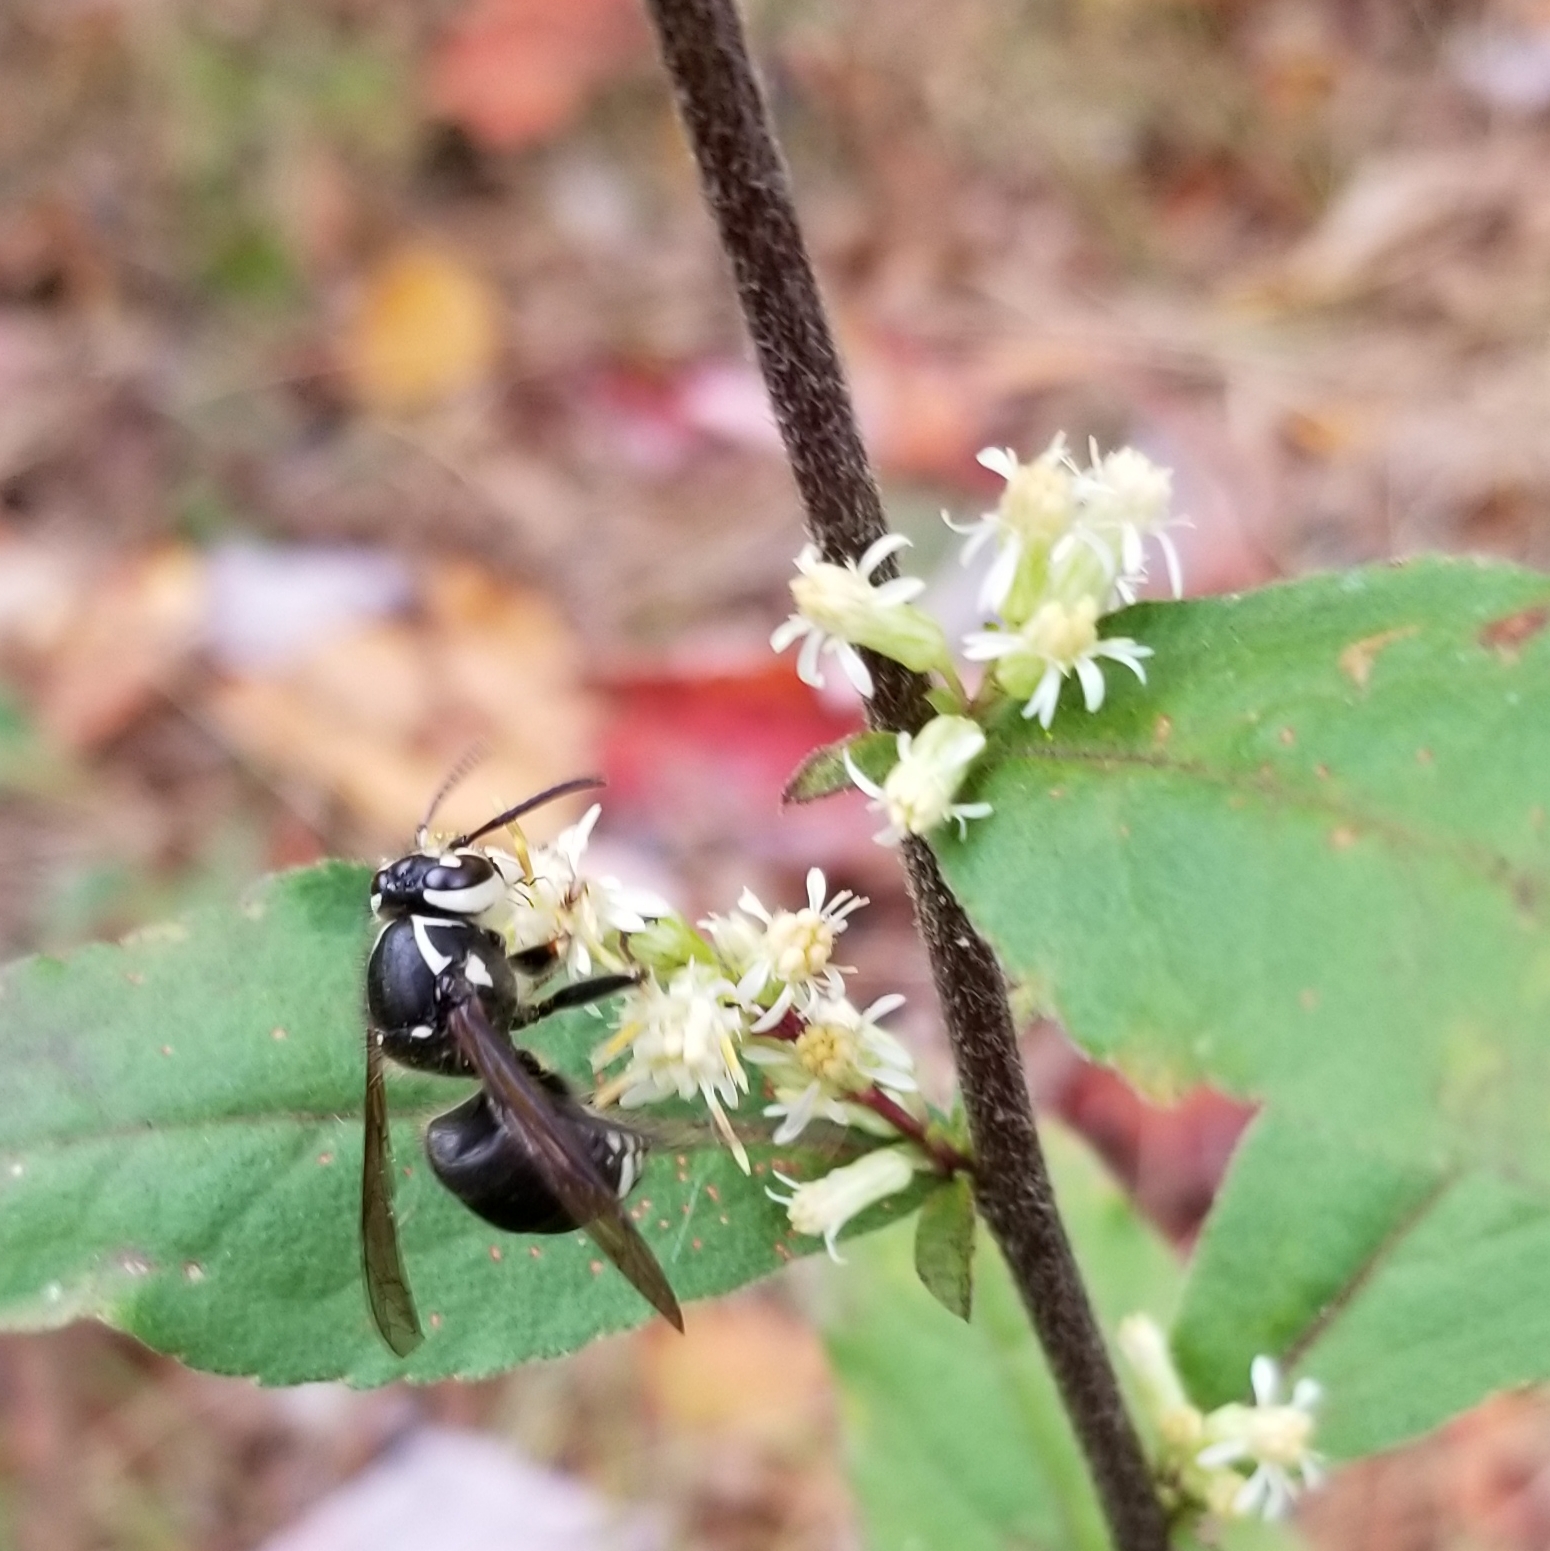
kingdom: Animalia
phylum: Arthropoda
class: Insecta
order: Hymenoptera
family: Vespidae
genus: Dolichovespula
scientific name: Dolichovespula maculata
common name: Bald-faced hornet
